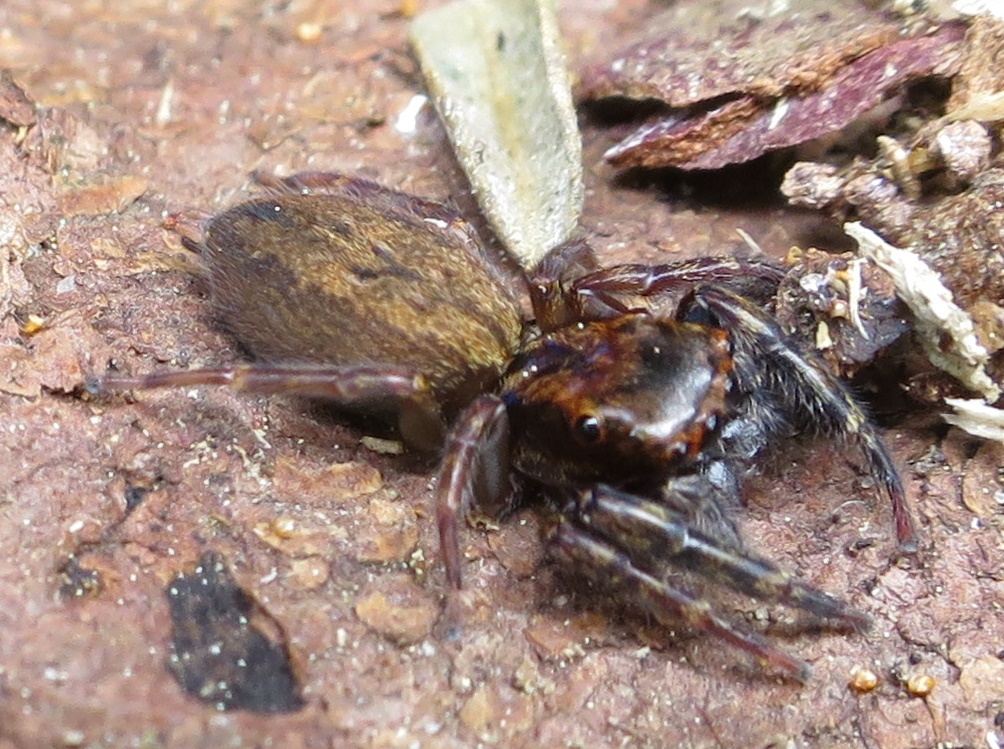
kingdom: Animalia
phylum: Arthropoda
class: Arachnida
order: Araneae
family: Salticidae
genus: Trite
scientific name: Trite auricoma
